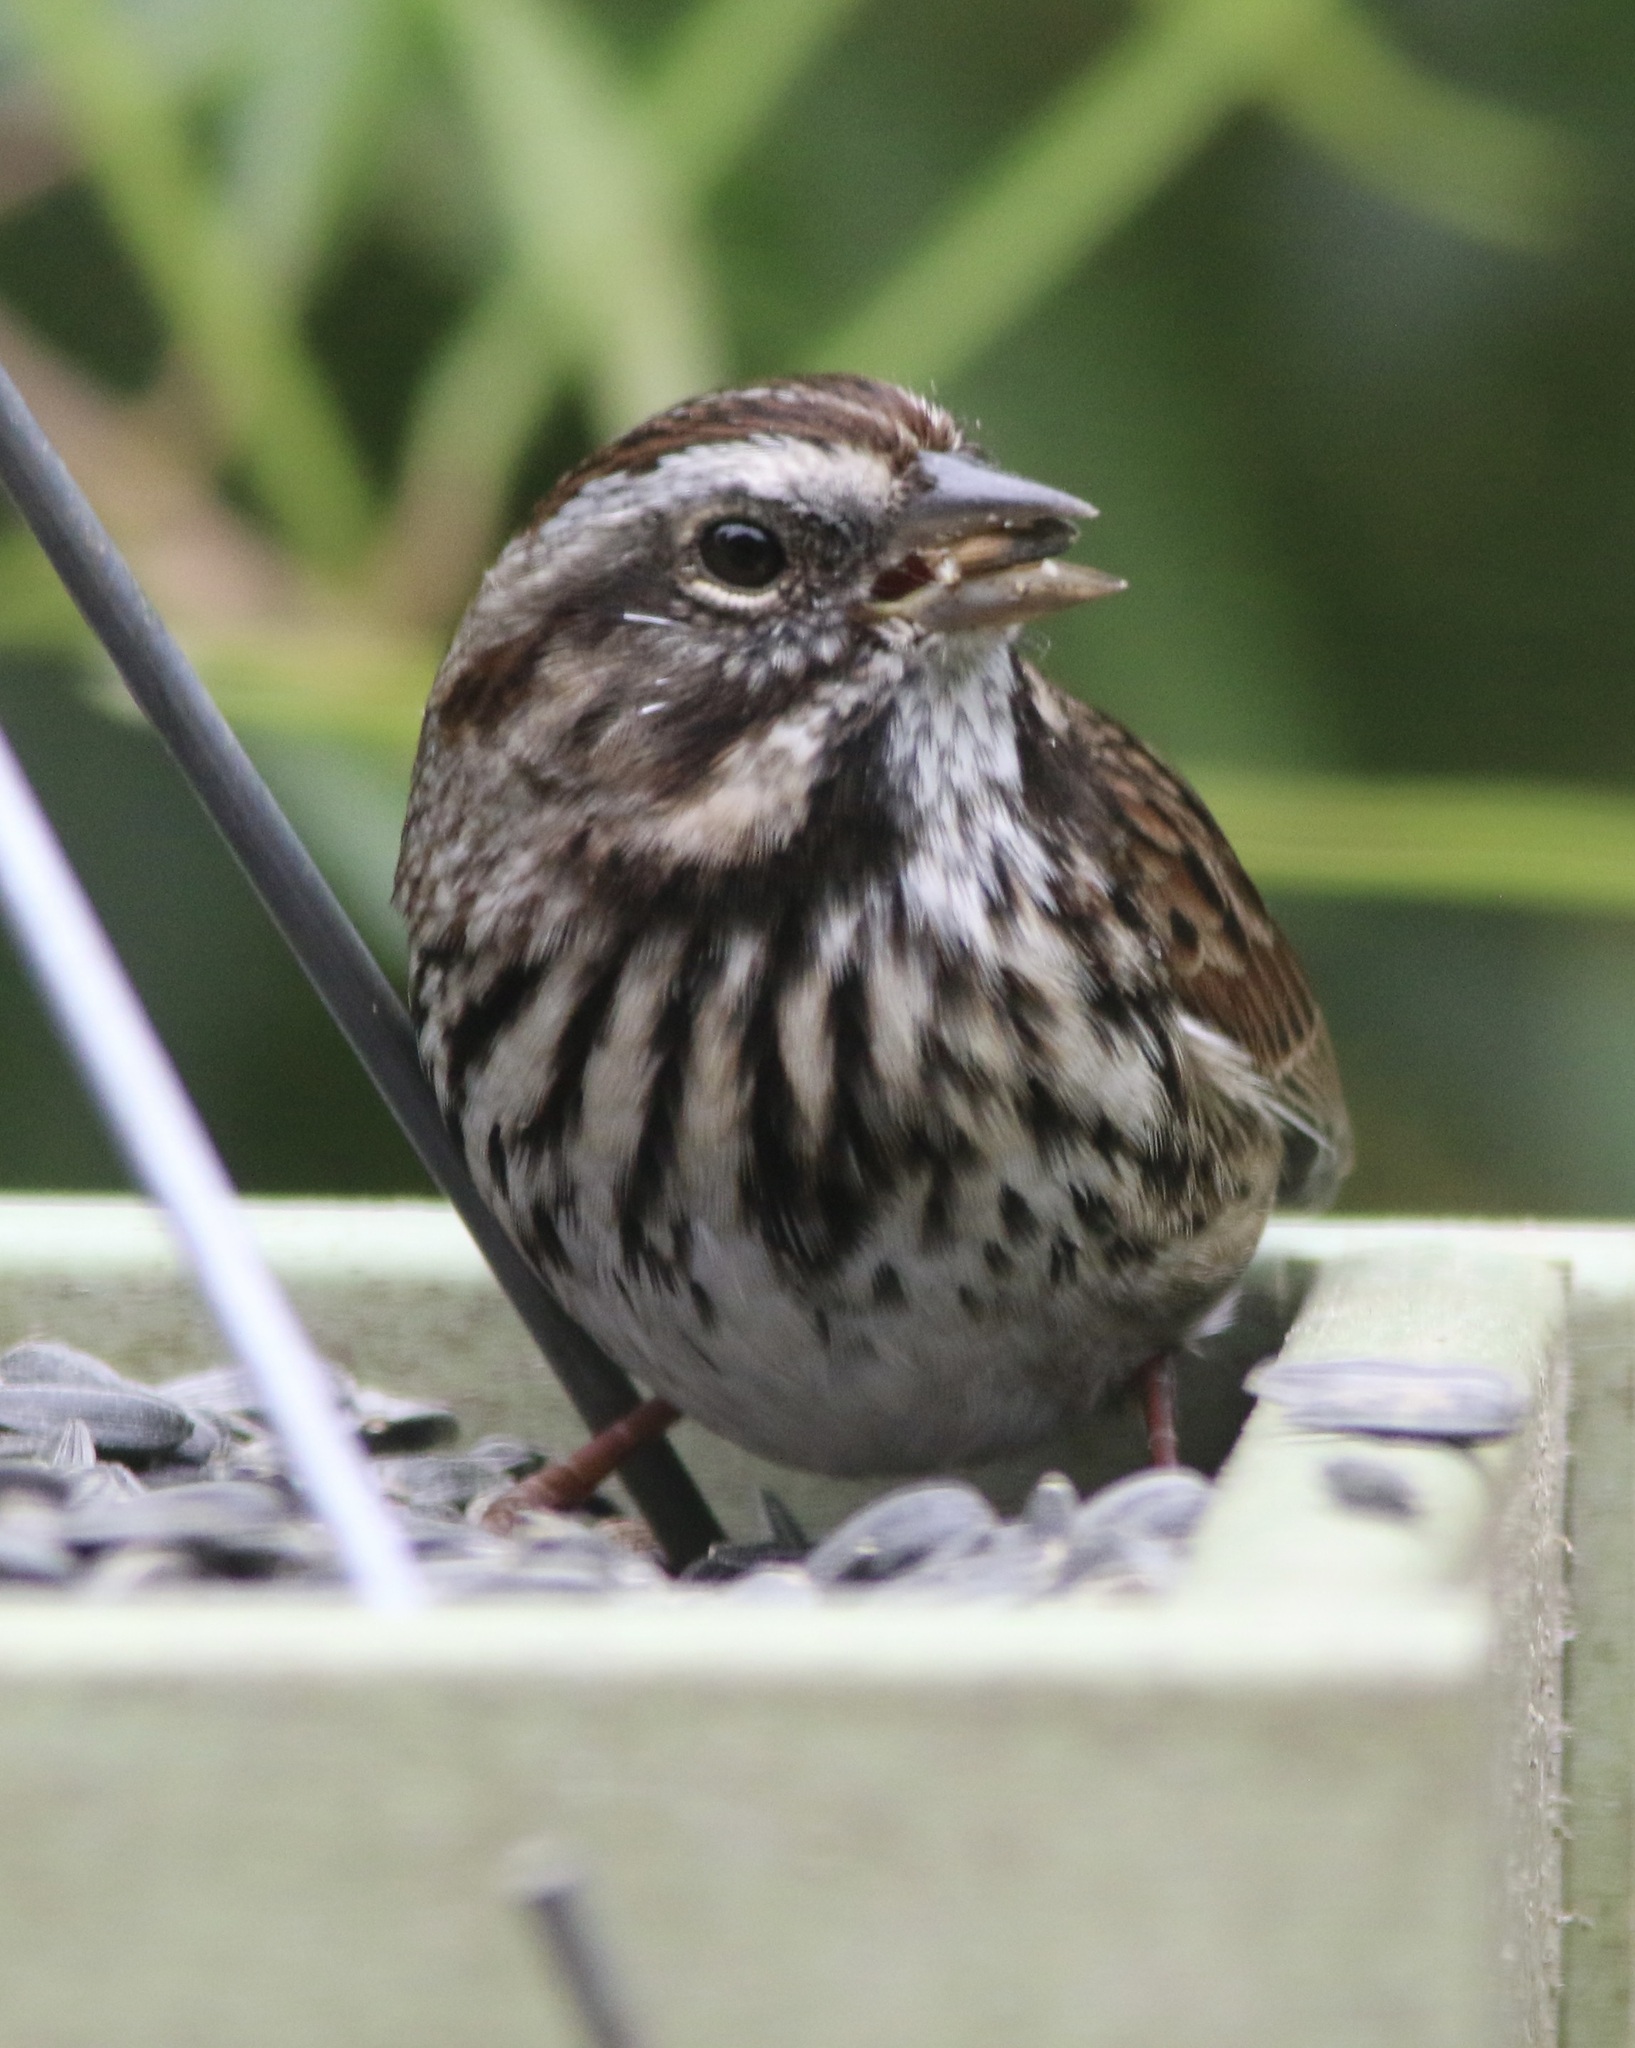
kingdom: Animalia
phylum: Chordata
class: Aves
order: Passeriformes
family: Passerellidae
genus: Melospiza
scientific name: Melospiza melodia
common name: Song sparrow
